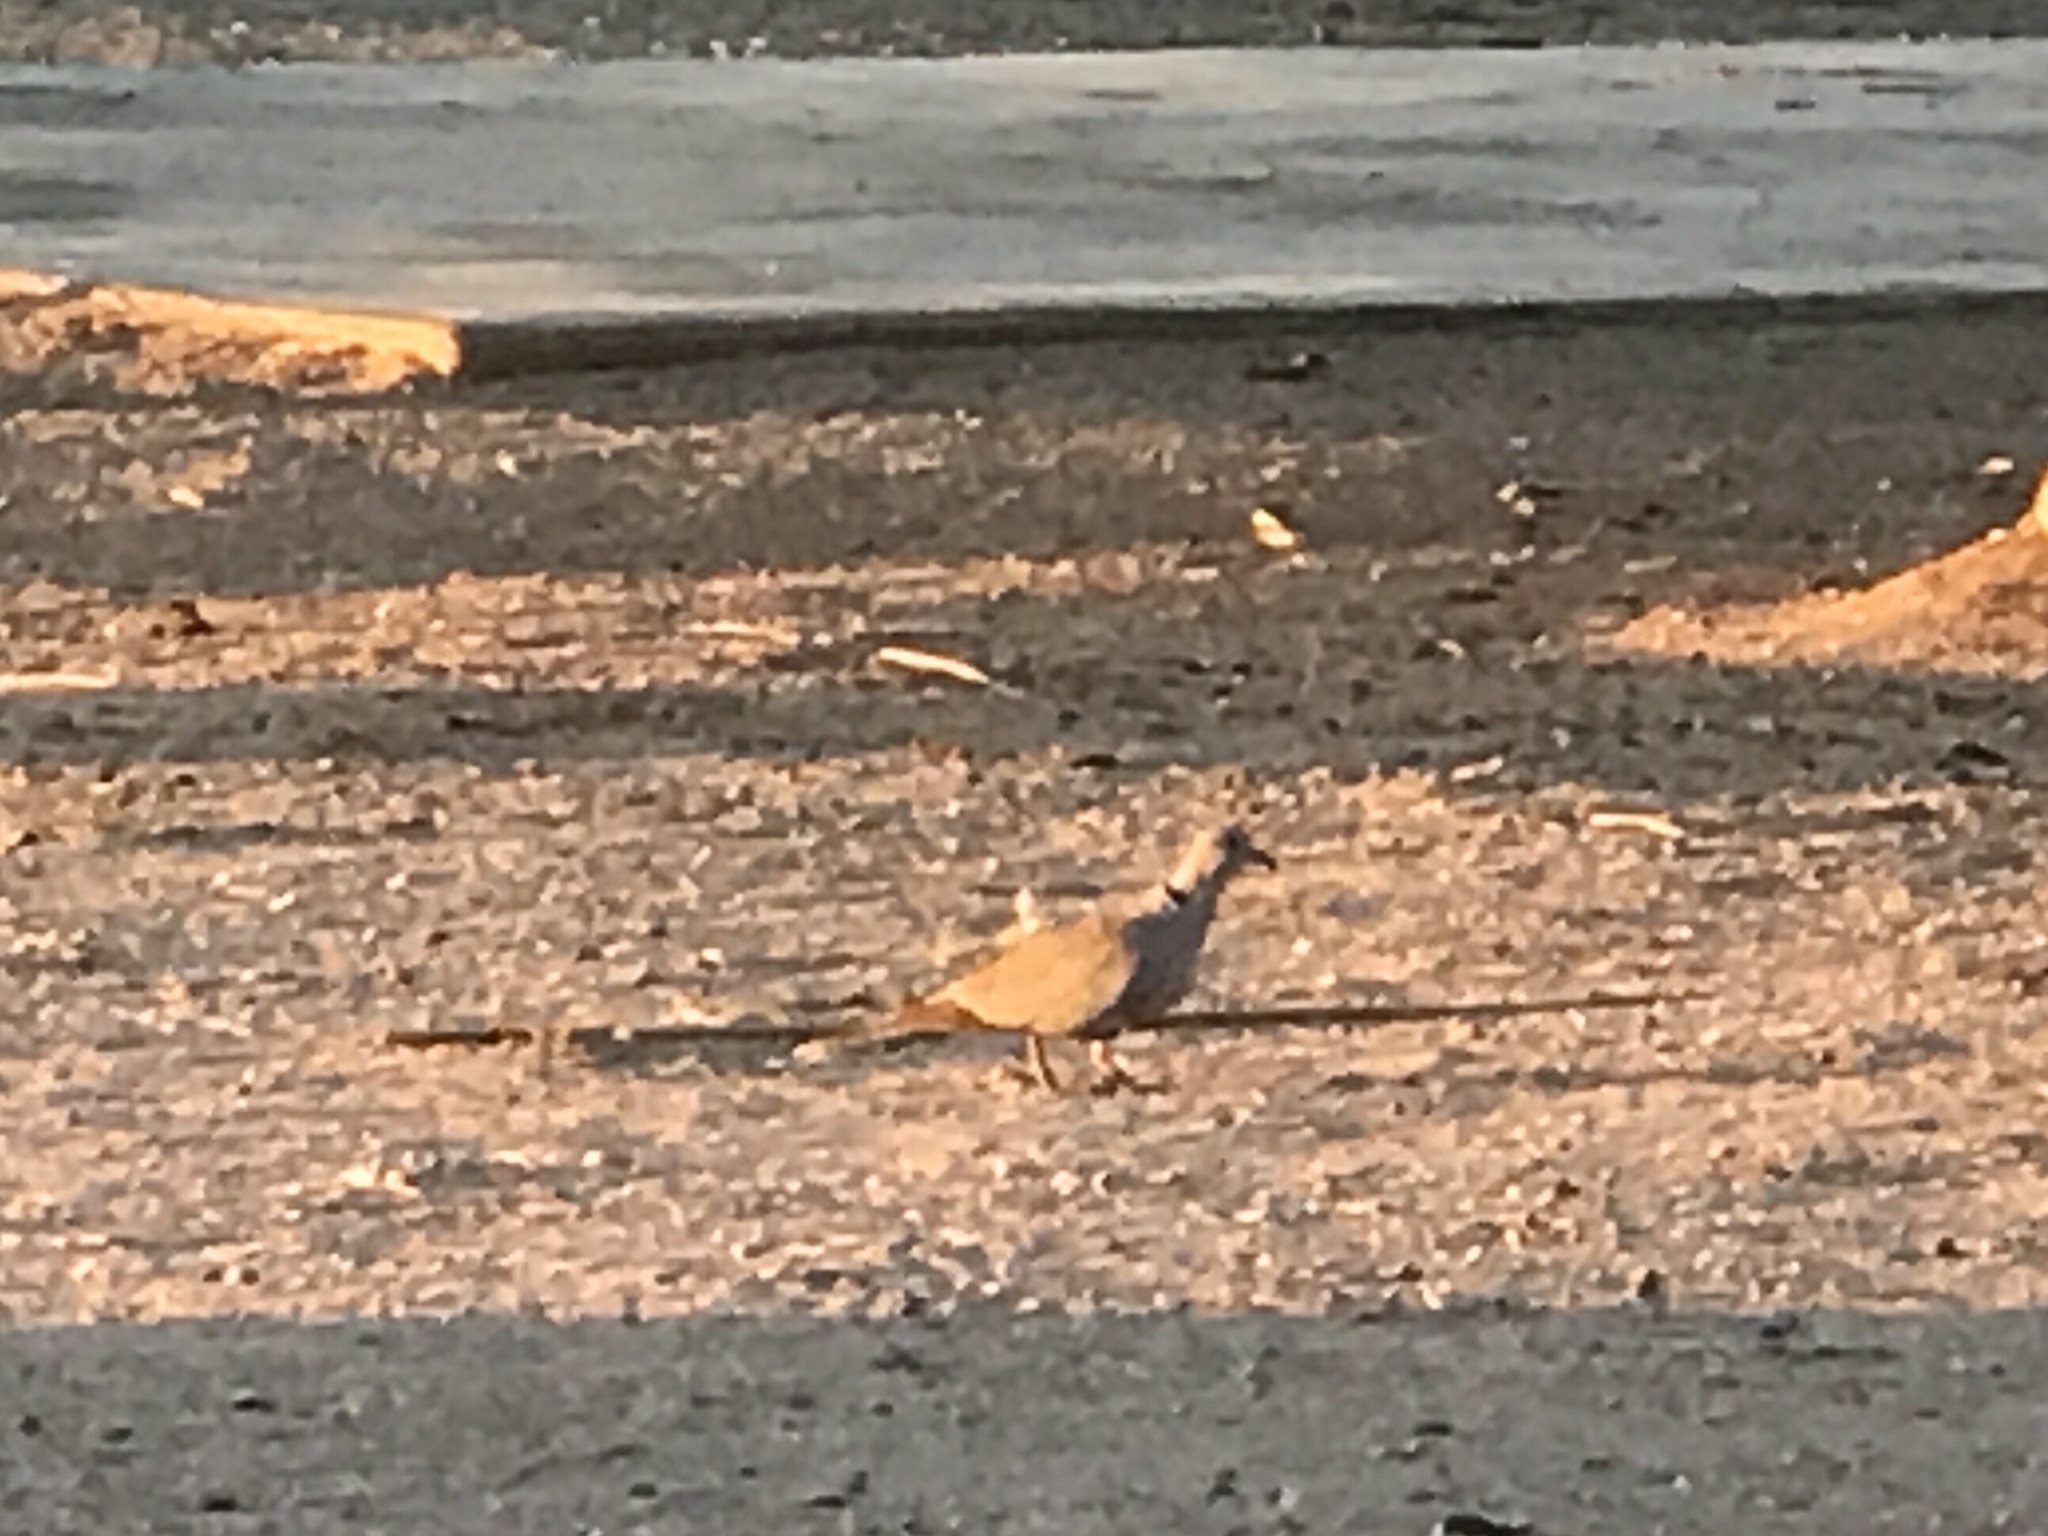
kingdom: Animalia
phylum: Chordata
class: Aves
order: Columbiformes
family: Columbidae
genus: Streptopelia
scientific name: Streptopelia decaocto
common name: Eurasian collared dove
